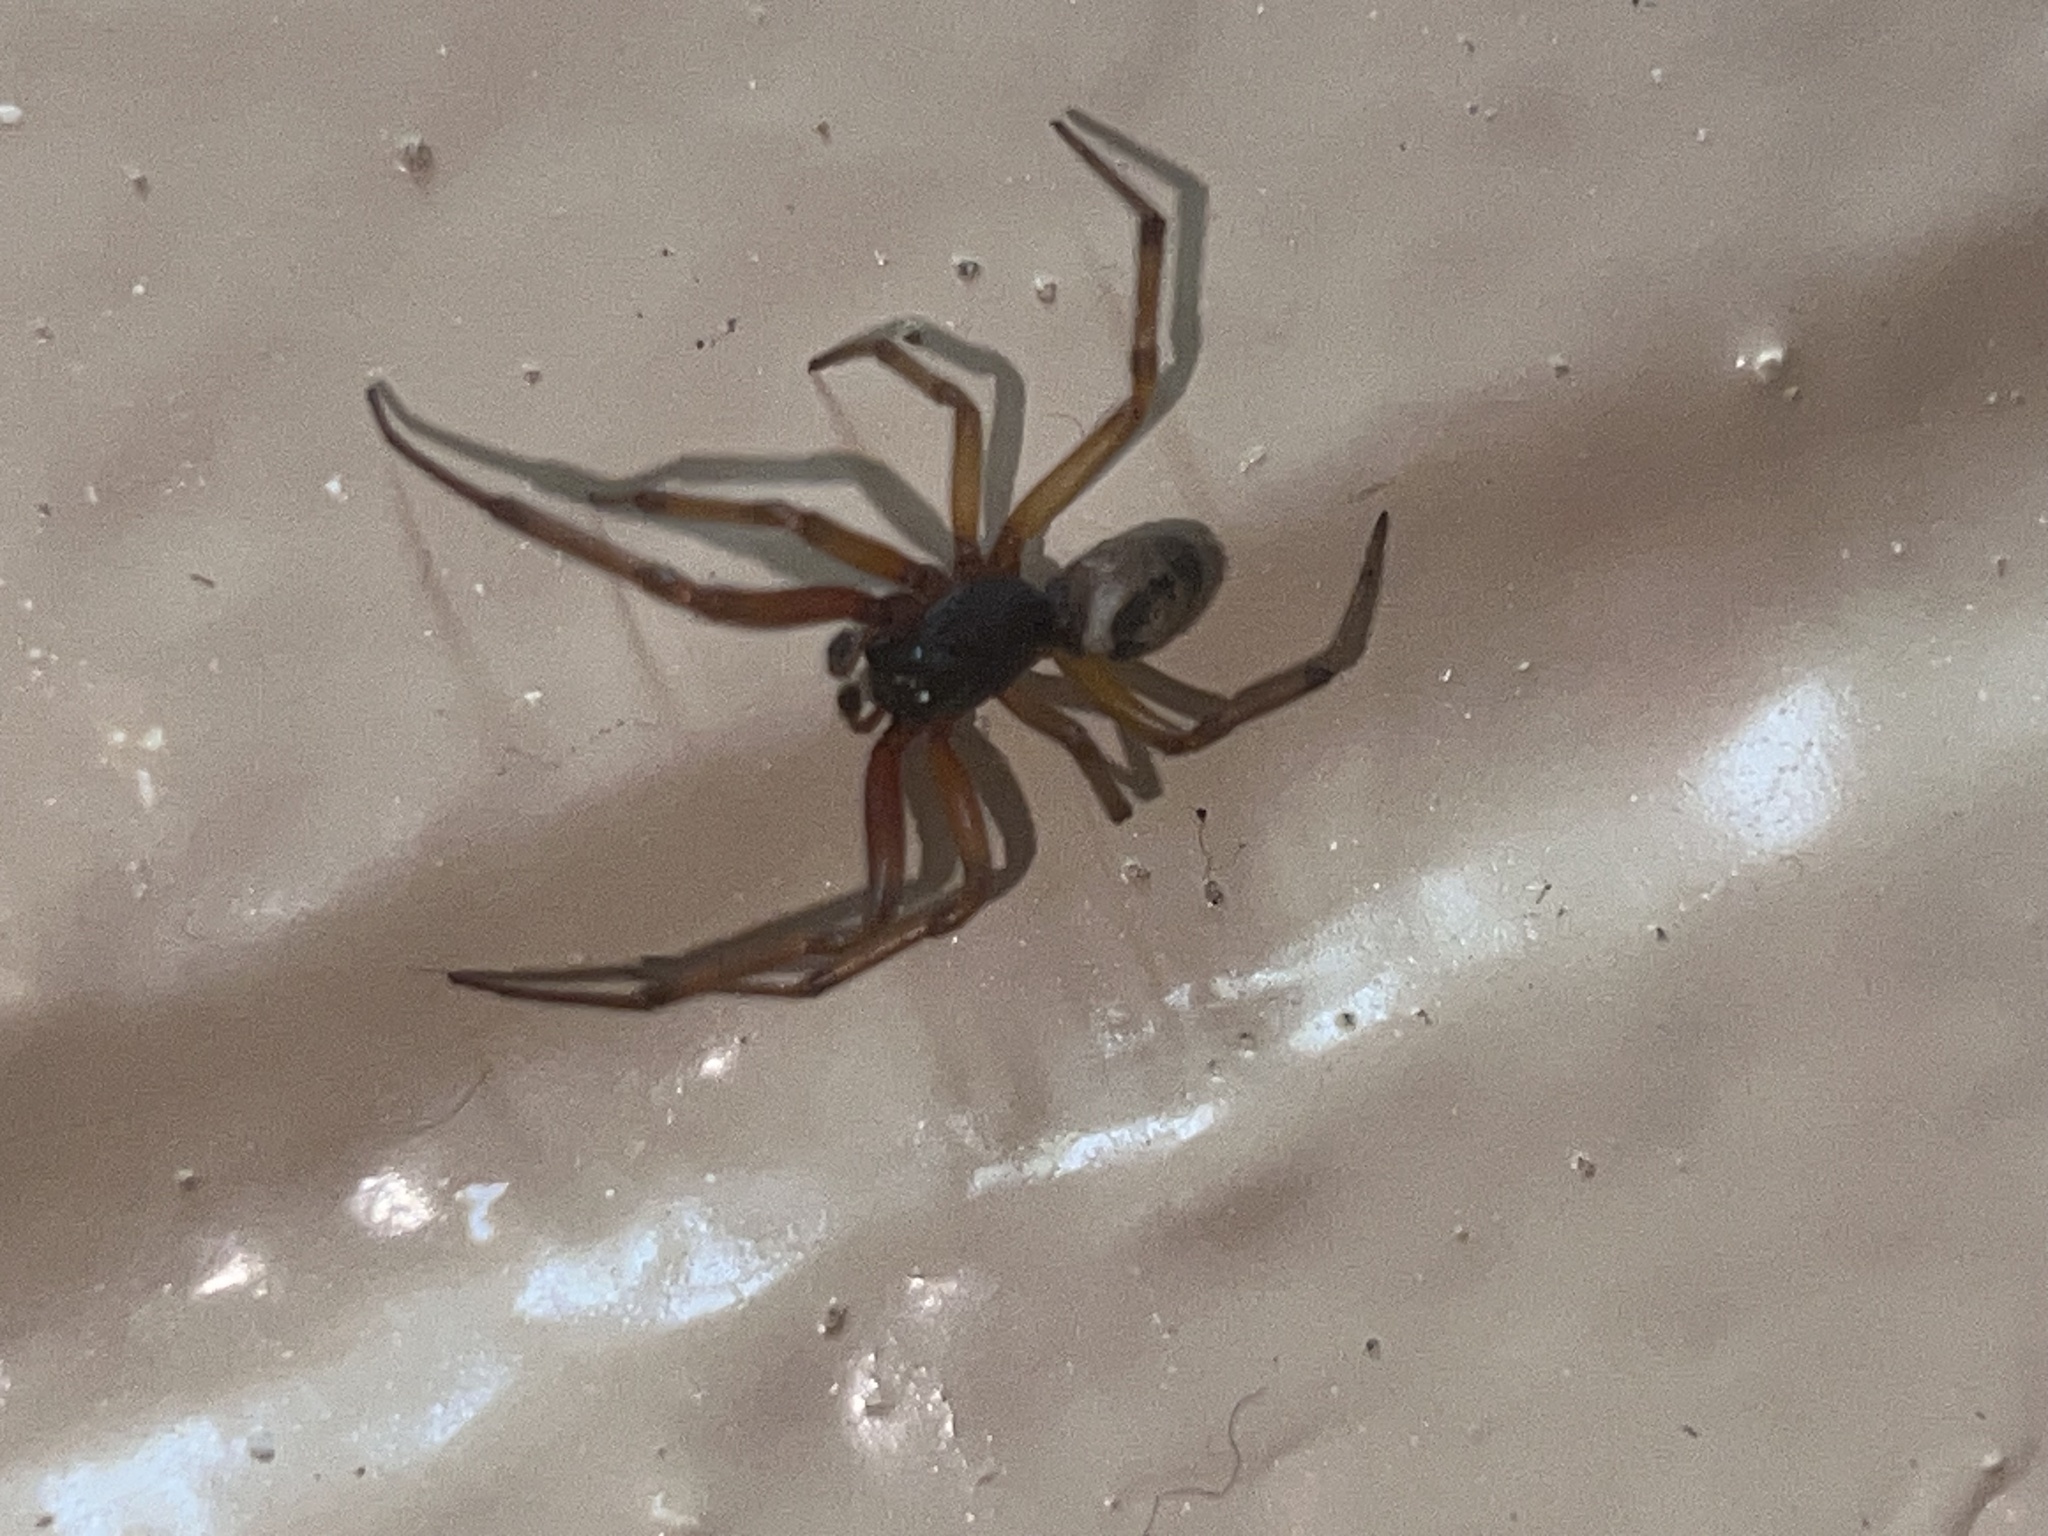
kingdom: Animalia
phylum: Arthropoda
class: Arachnida
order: Araneae
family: Theridiidae
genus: Steatoda
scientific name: Steatoda nobilis
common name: Cobweb weaver
